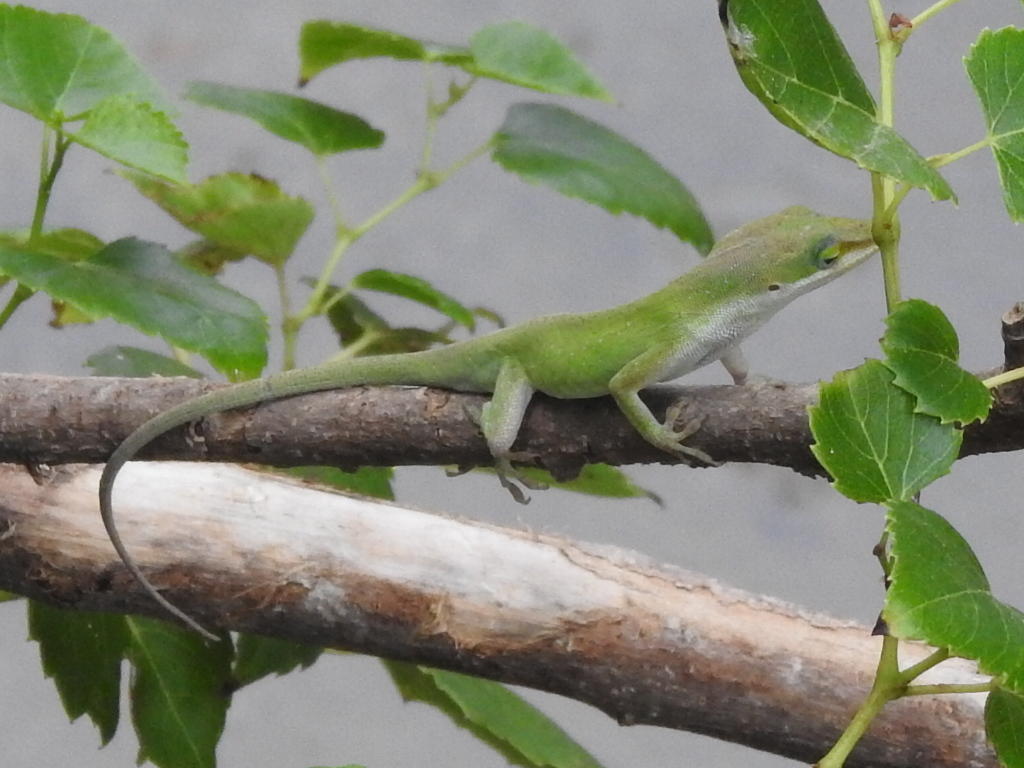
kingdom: Animalia
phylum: Chordata
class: Squamata
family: Dactyloidae
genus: Anolis
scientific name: Anolis carolinensis
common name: Green anole
